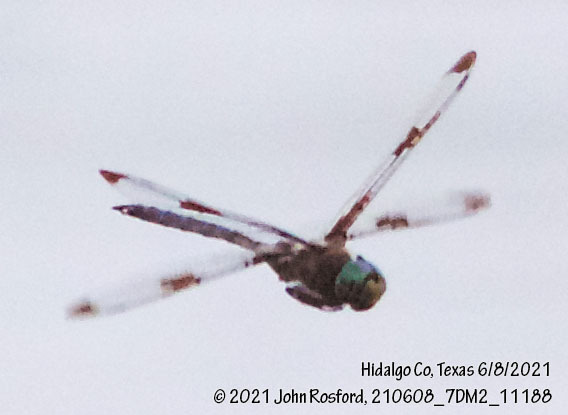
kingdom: Animalia
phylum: Arthropoda
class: Insecta
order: Odonata
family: Corduliidae
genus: Epitheca
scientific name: Epitheca princeps
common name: Prince baskettail
